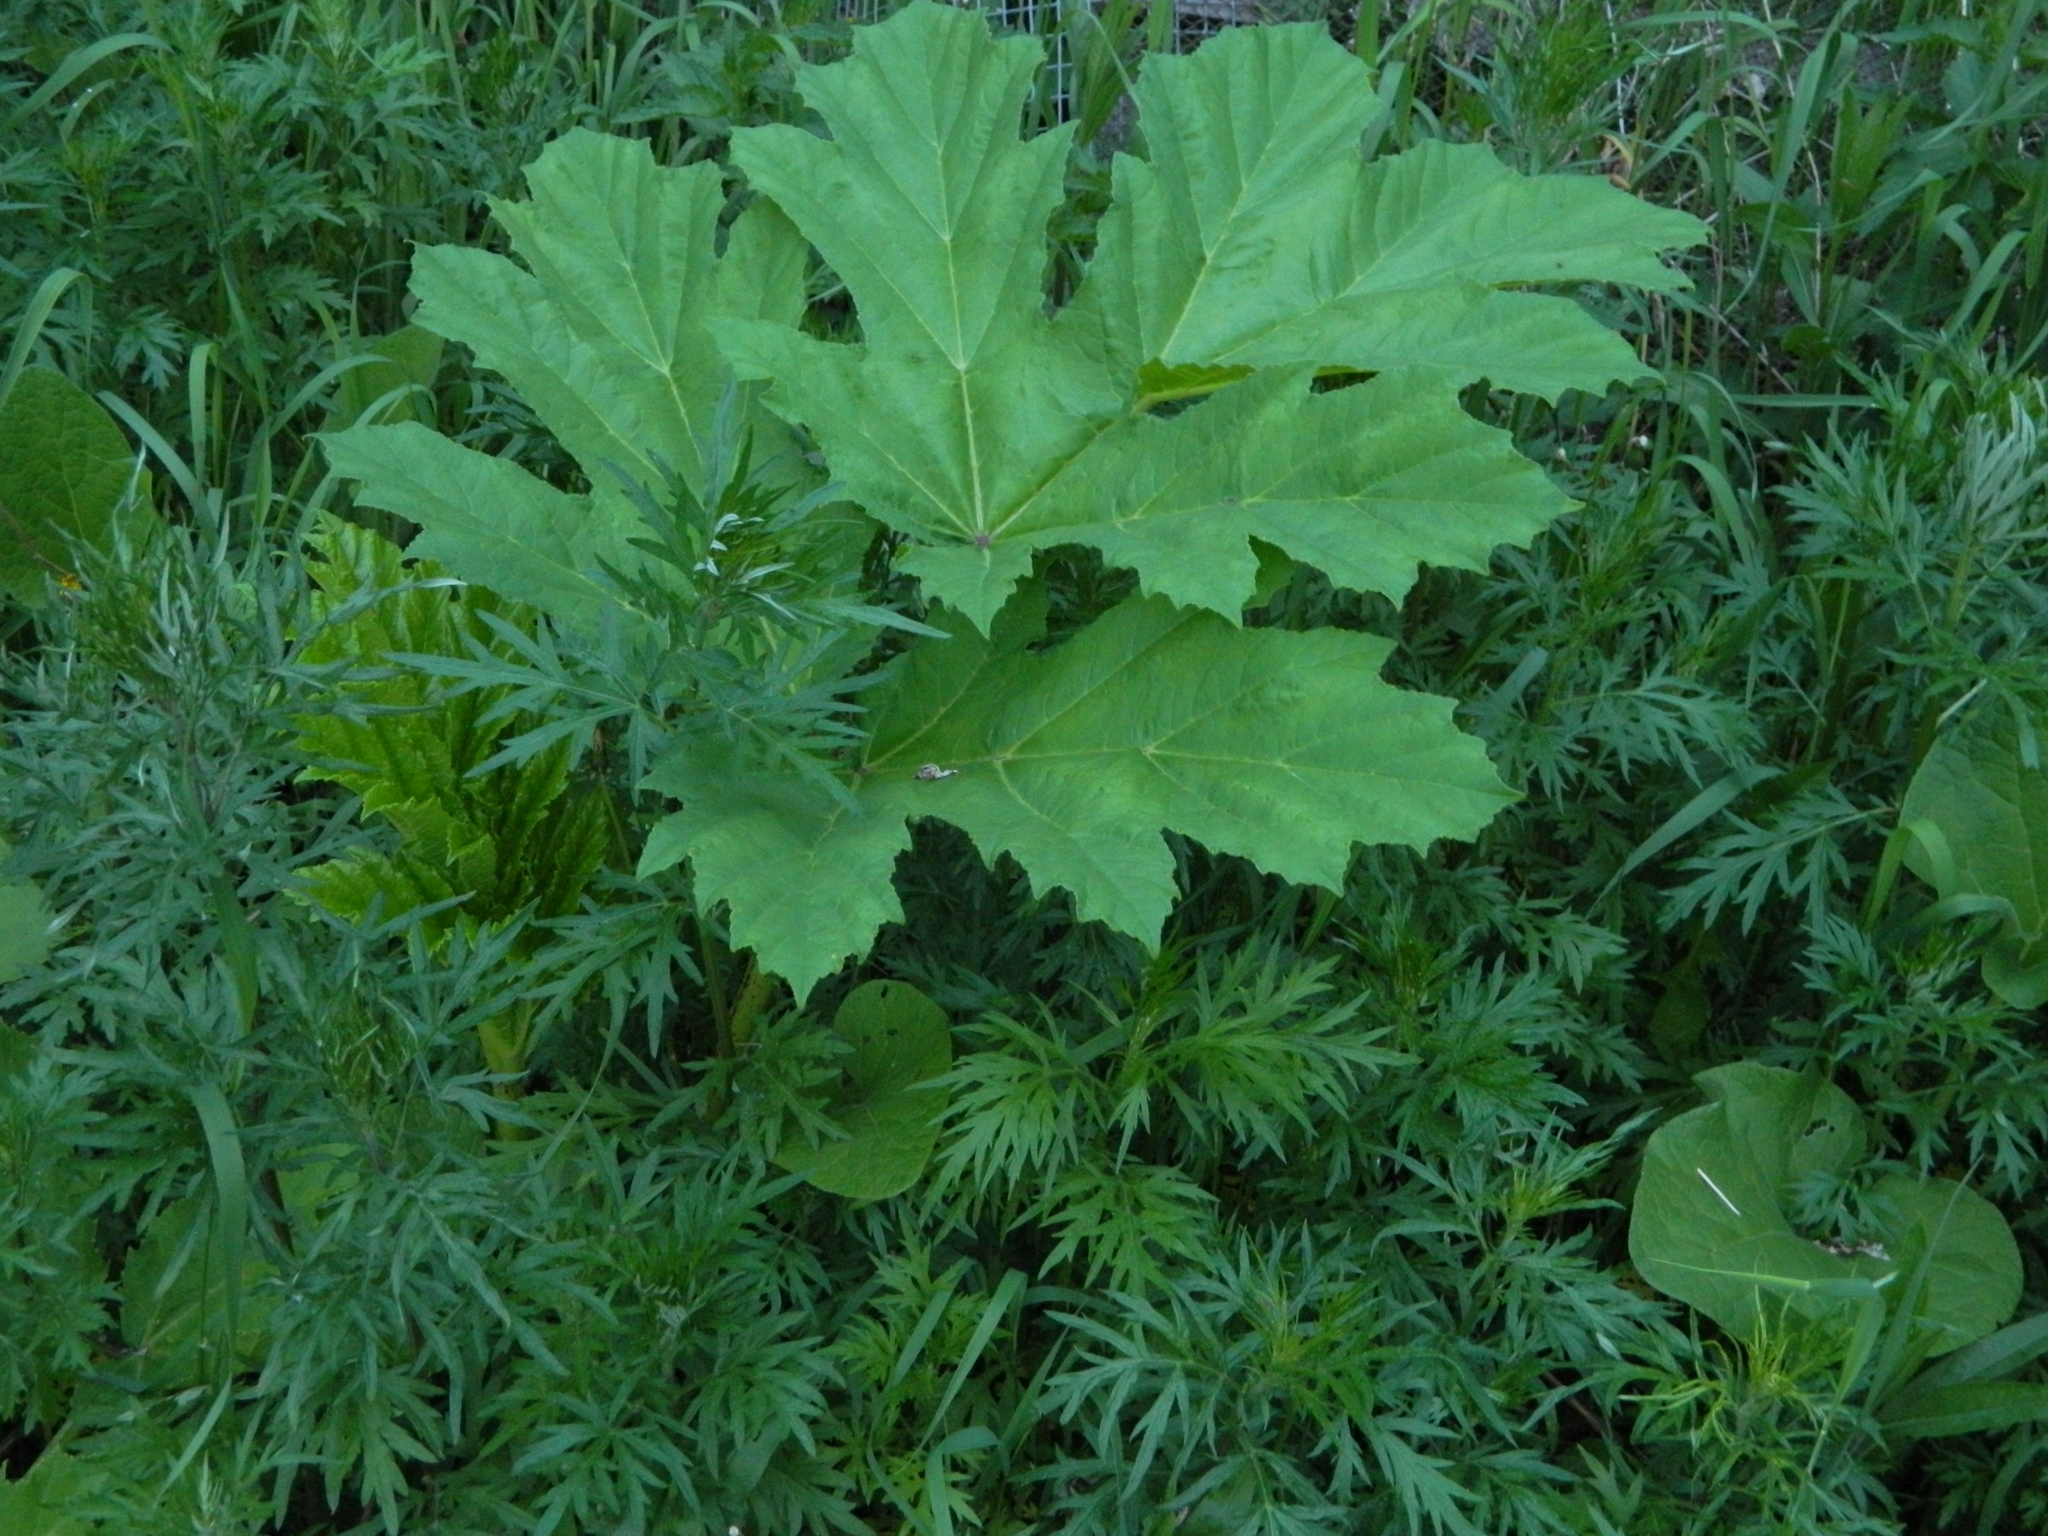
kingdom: Plantae
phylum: Tracheophyta
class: Magnoliopsida
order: Apiales
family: Apiaceae
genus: Heracleum
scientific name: Heracleum sosnowskyi
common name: Sosnowsky's hogweed
